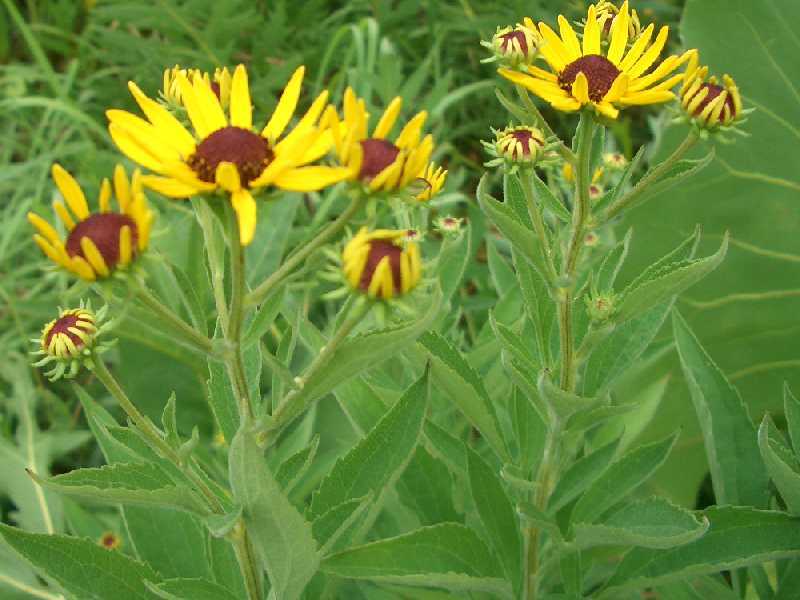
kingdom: Plantae
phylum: Tracheophyta
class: Magnoliopsida
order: Asterales
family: Asteraceae
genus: Rudbeckia
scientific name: Rudbeckia subtomentosa
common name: Sweet coneflower
